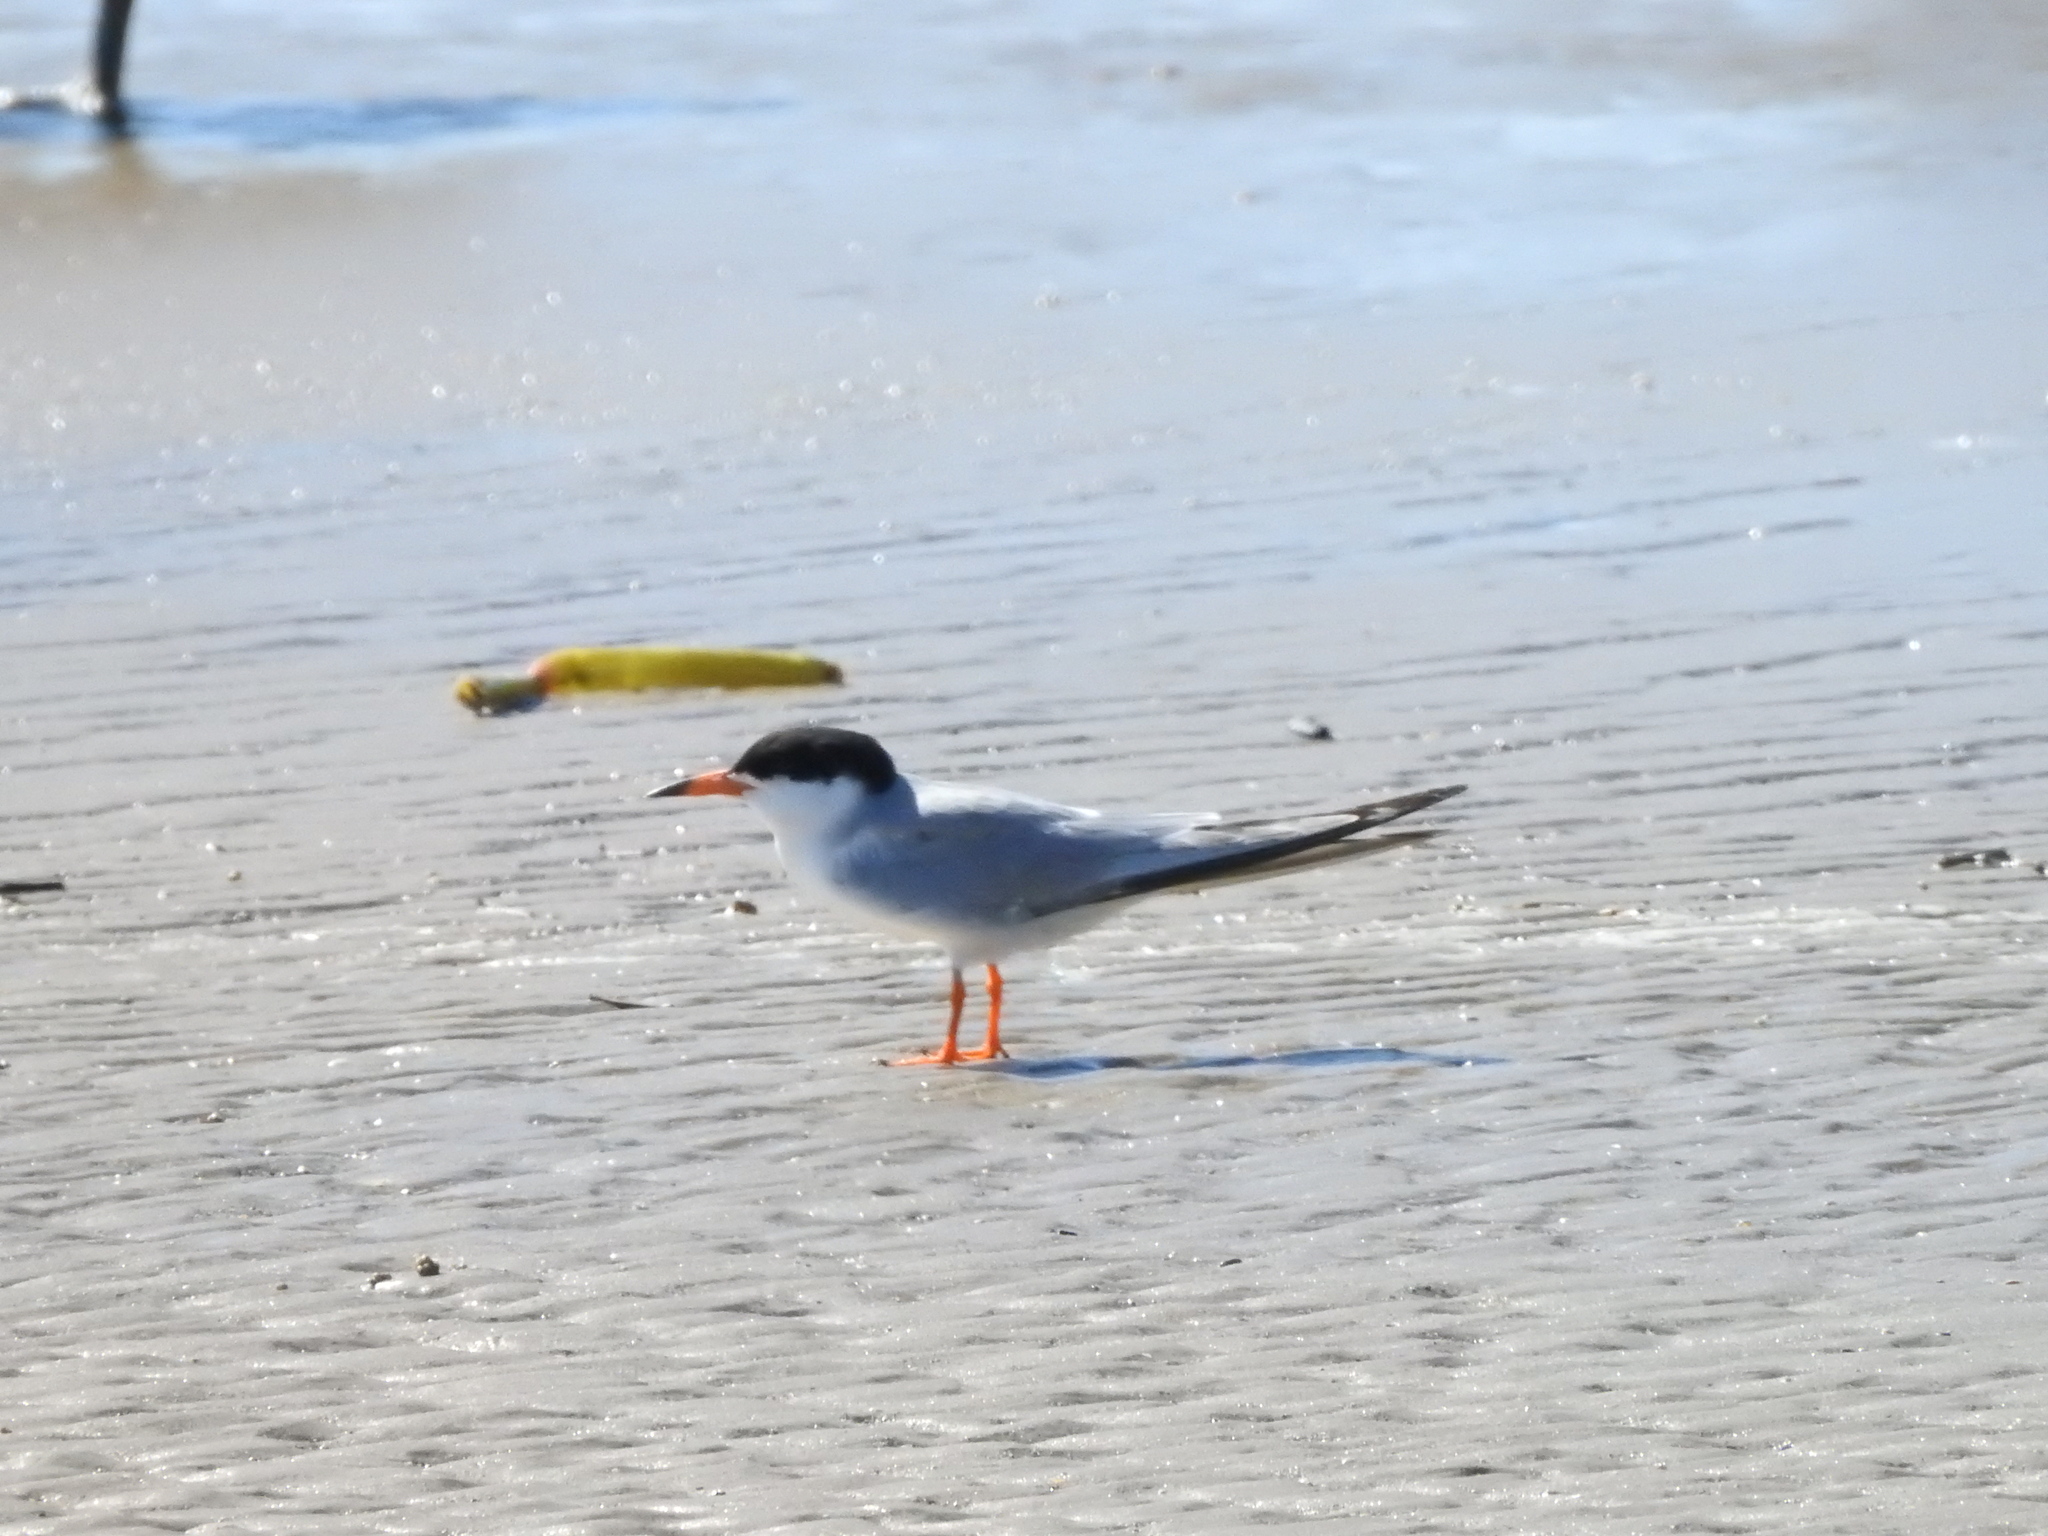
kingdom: Animalia
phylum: Chordata
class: Aves
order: Charadriiformes
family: Laridae
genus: Sterna
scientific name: Sterna forsteri
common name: Forster's tern
